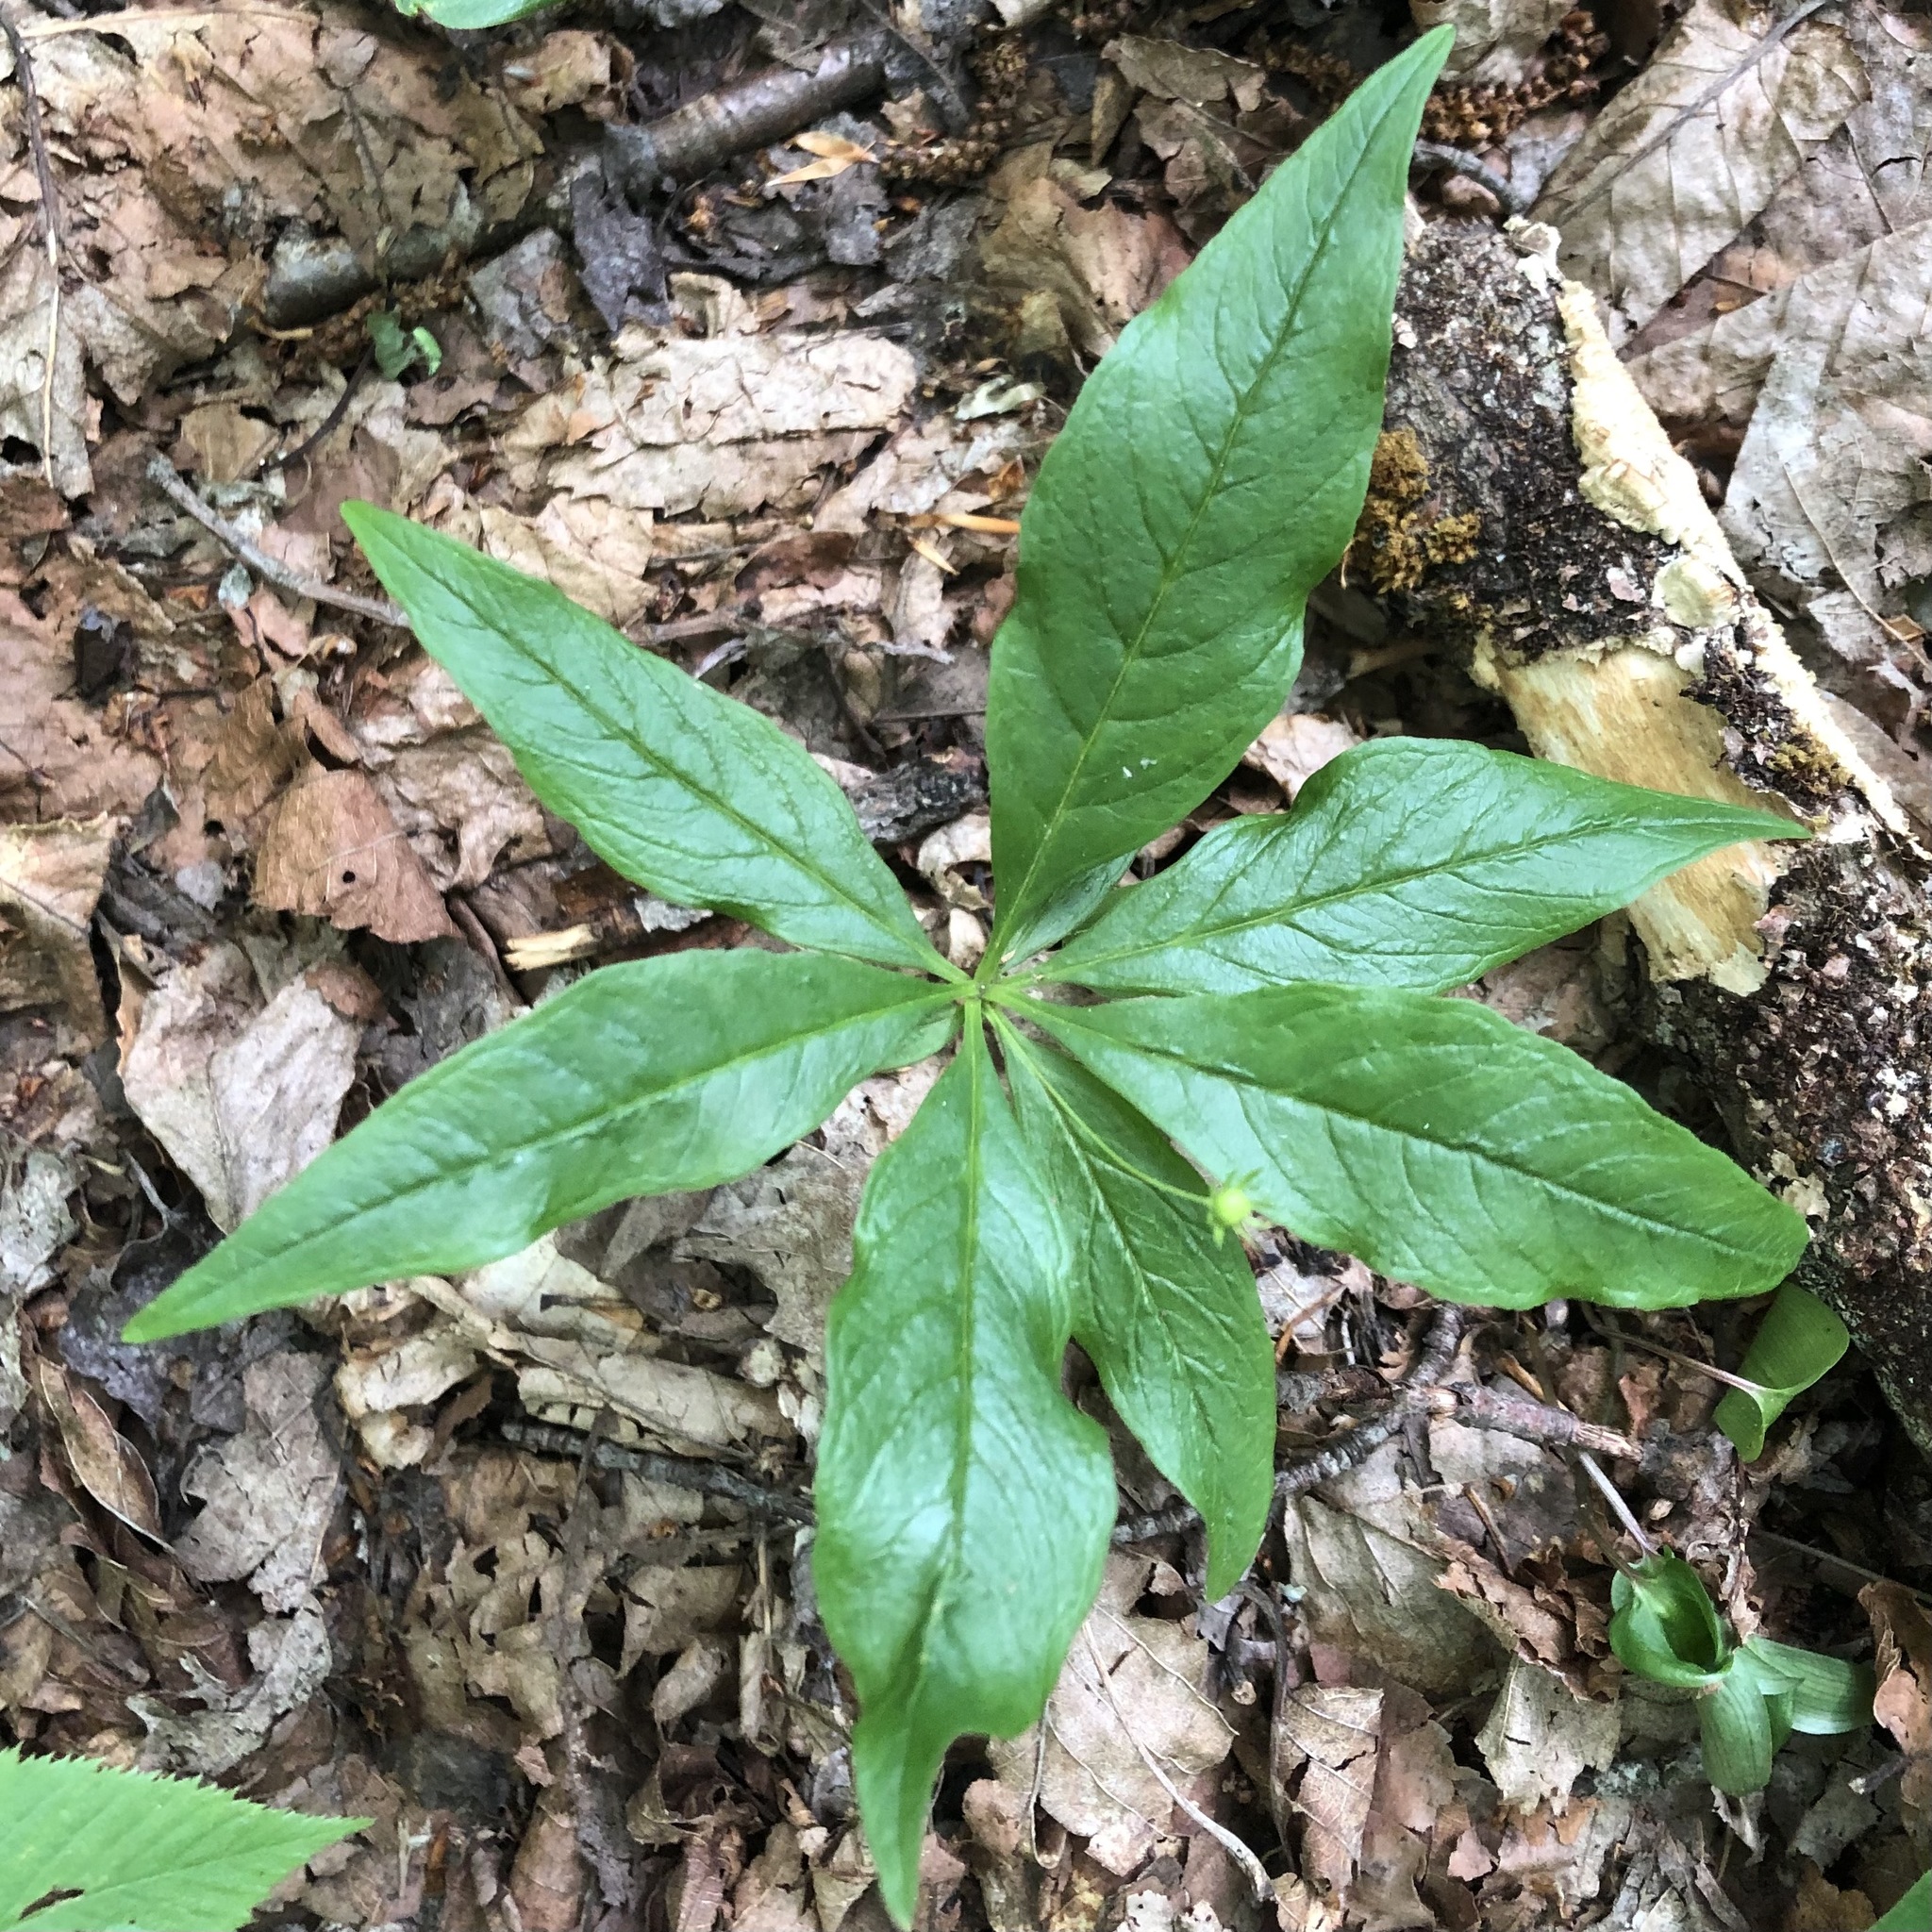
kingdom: Plantae
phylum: Tracheophyta
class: Magnoliopsida
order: Ericales
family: Primulaceae
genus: Lysimachia
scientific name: Lysimachia borealis
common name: American starflower
